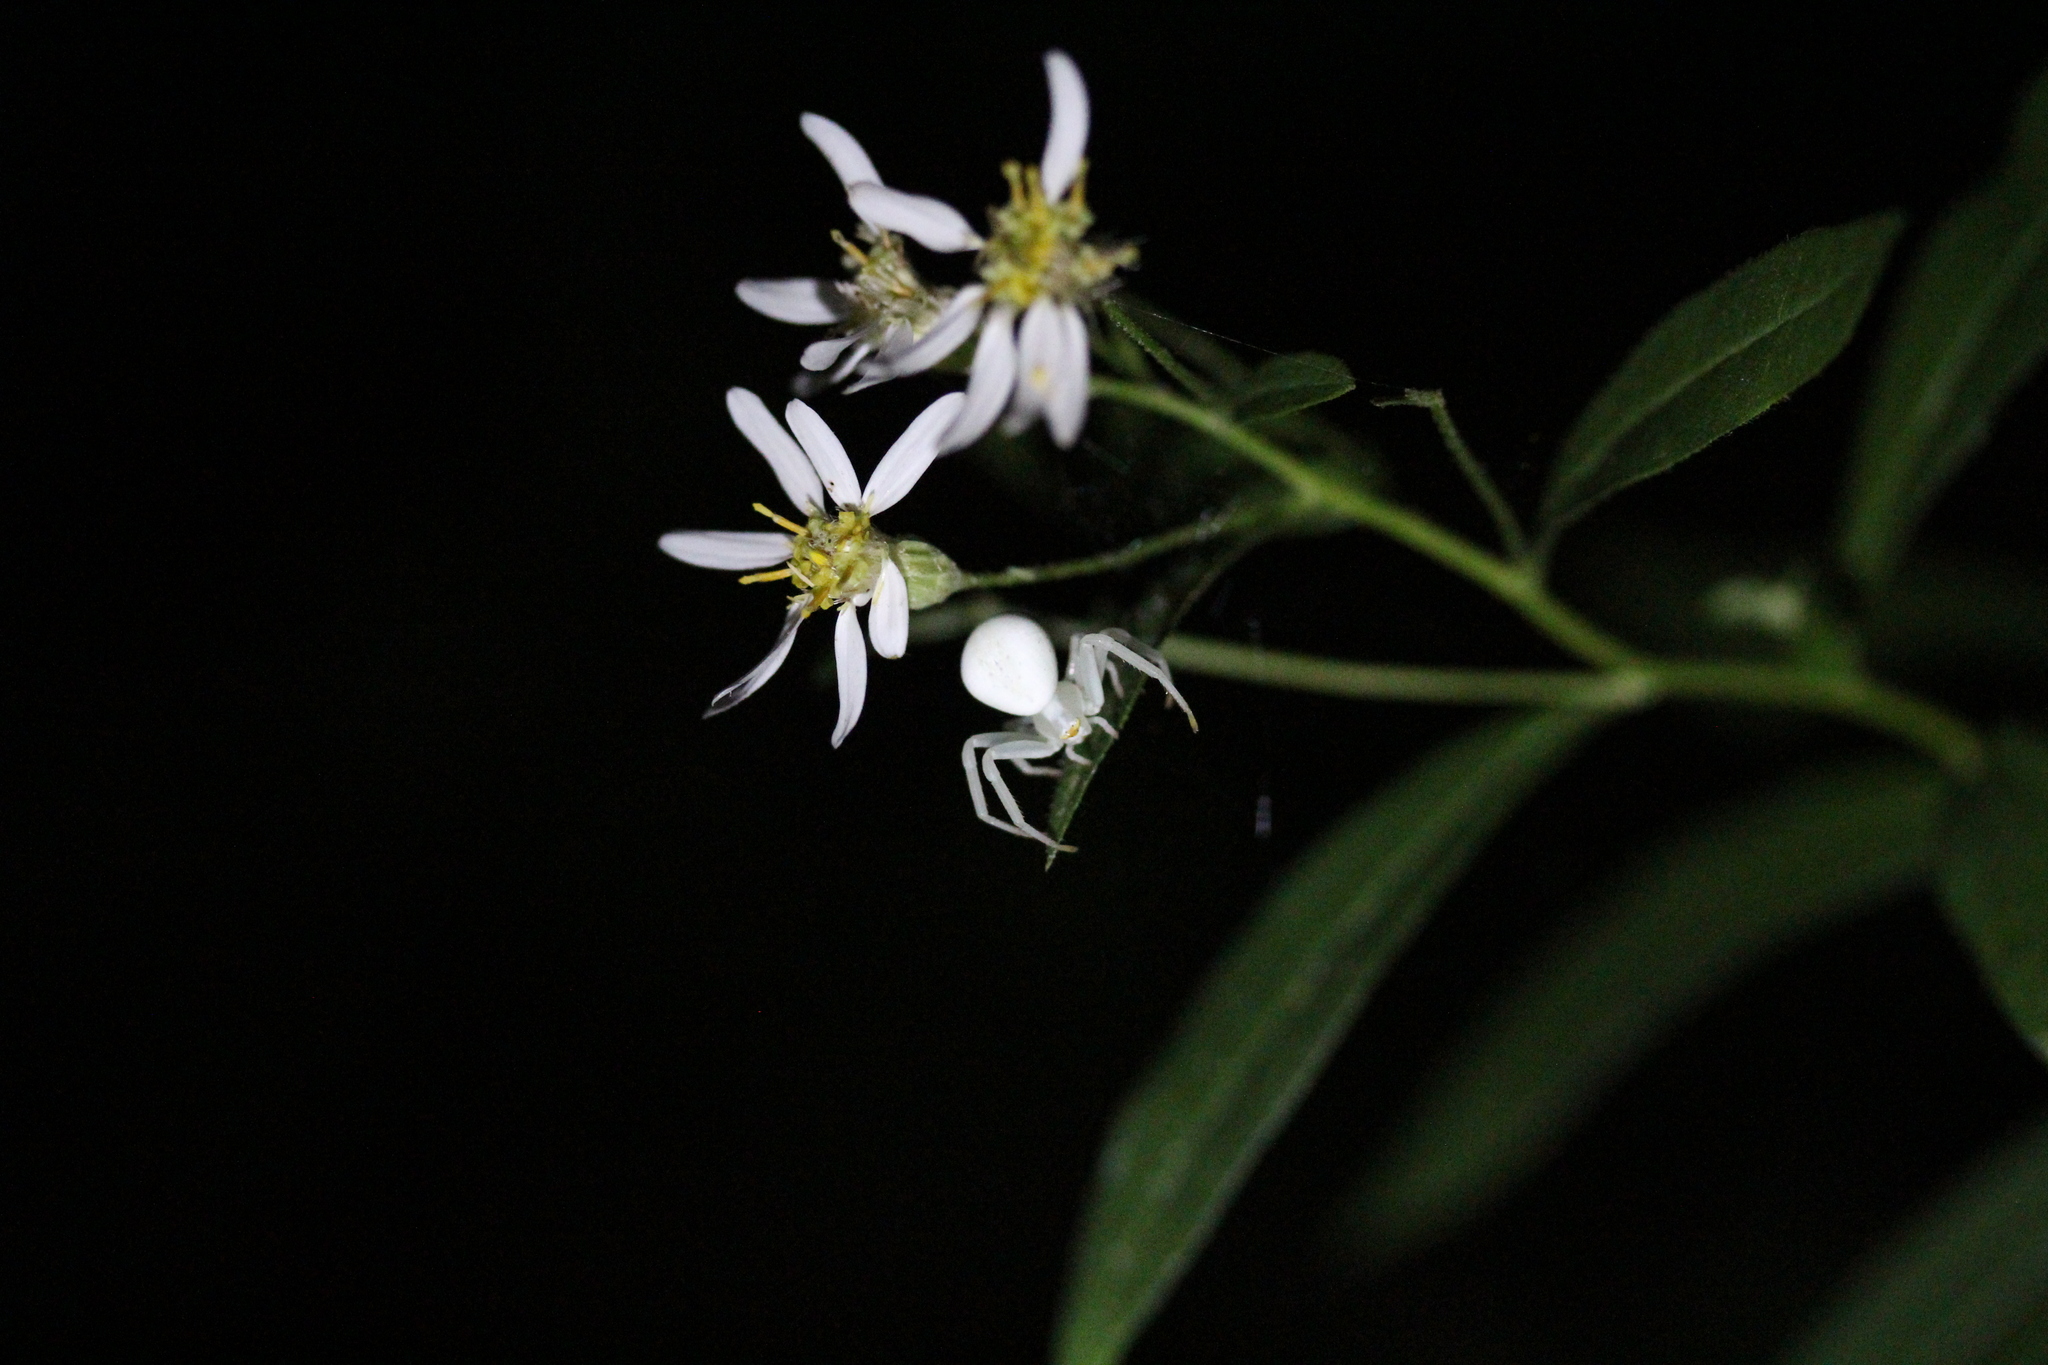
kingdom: Animalia
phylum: Arthropoda
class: Arachnida
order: Araneae
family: Thomisidae
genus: Misumena
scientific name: Misumena vatia
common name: Goldenrod crab spider
